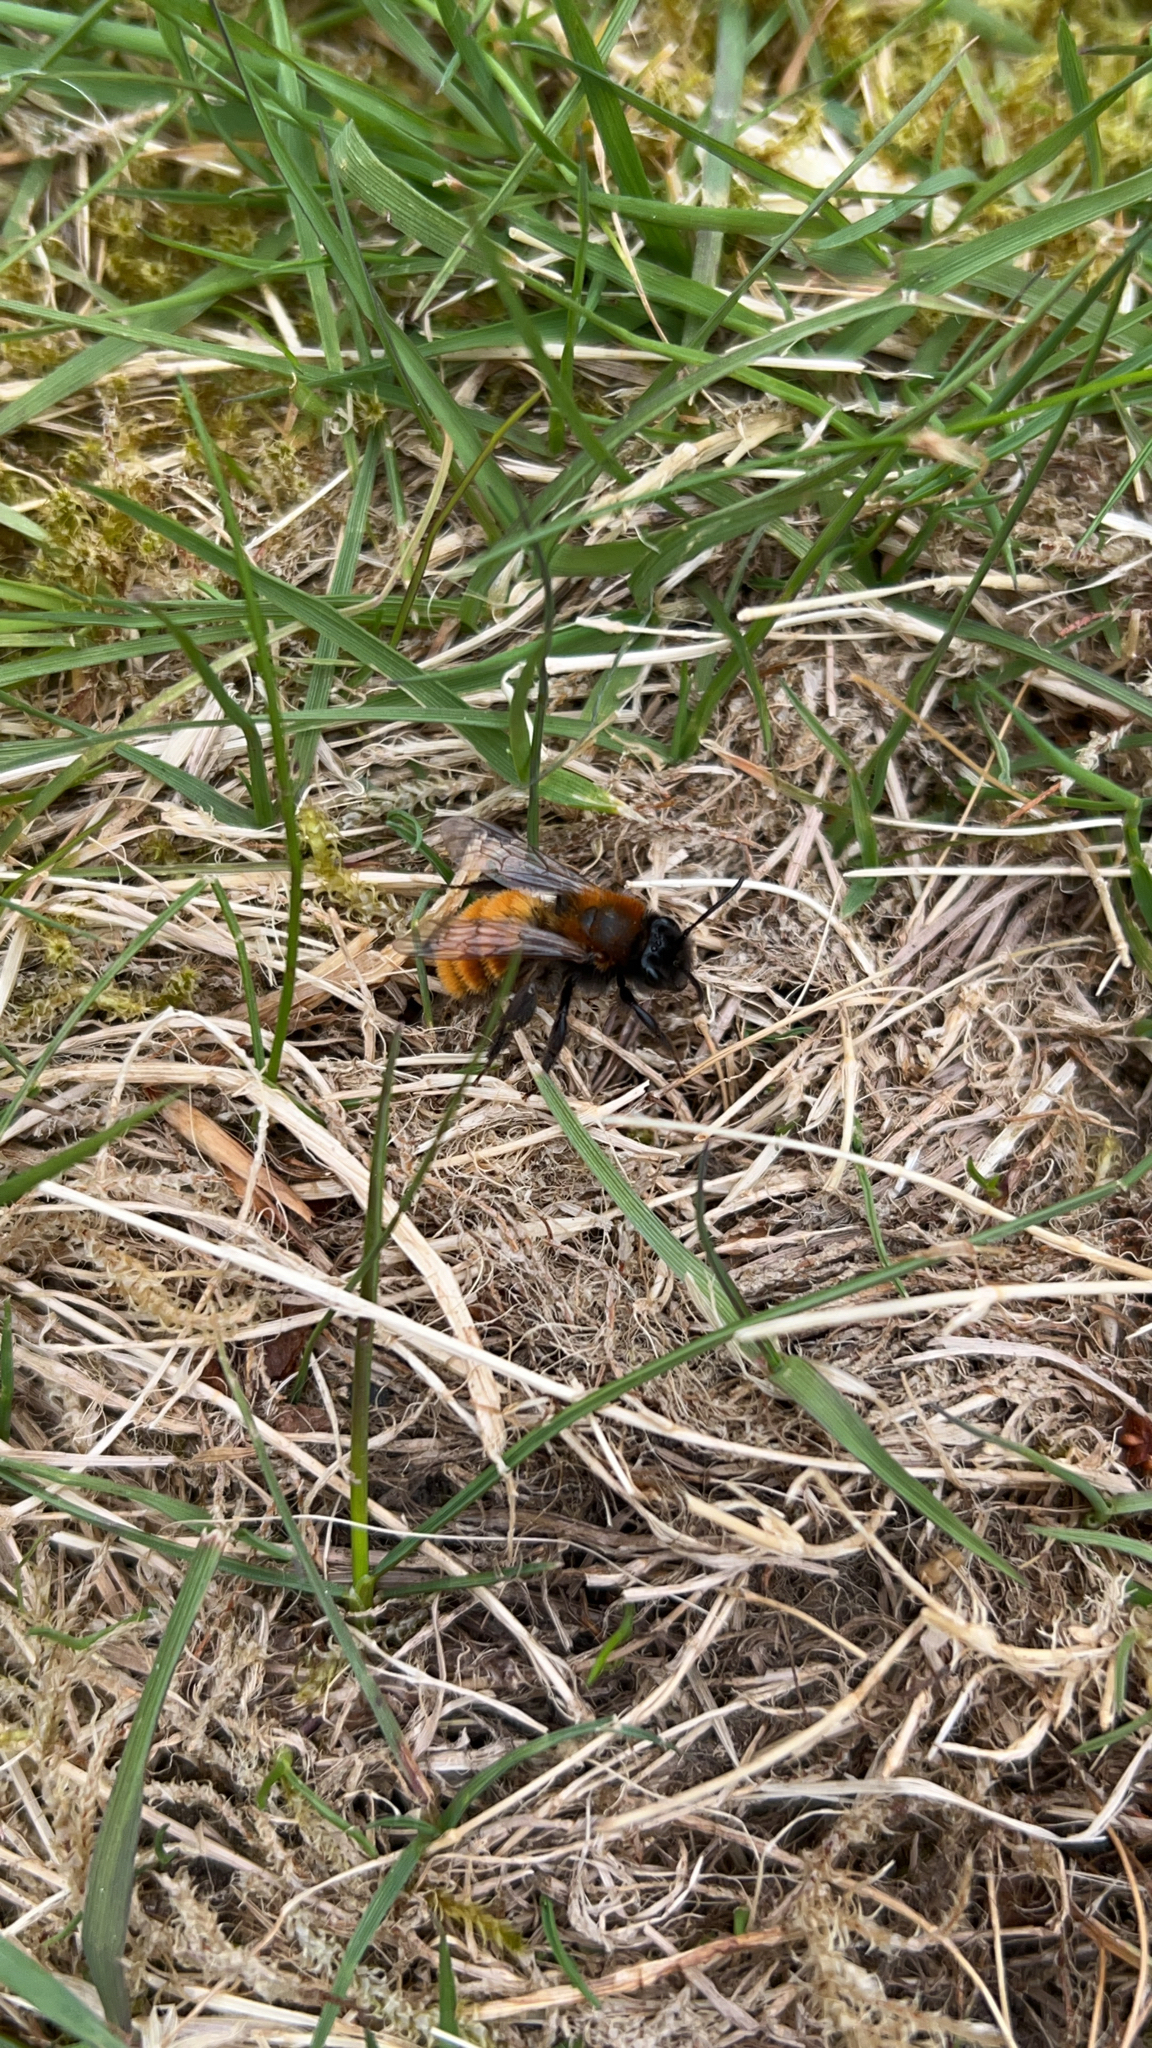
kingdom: Animalia
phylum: Arthropoda
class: Insecta
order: Hymenoptera
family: Andrenidae
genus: Andrena
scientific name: Andrena fulva
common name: Tawny mining bee
